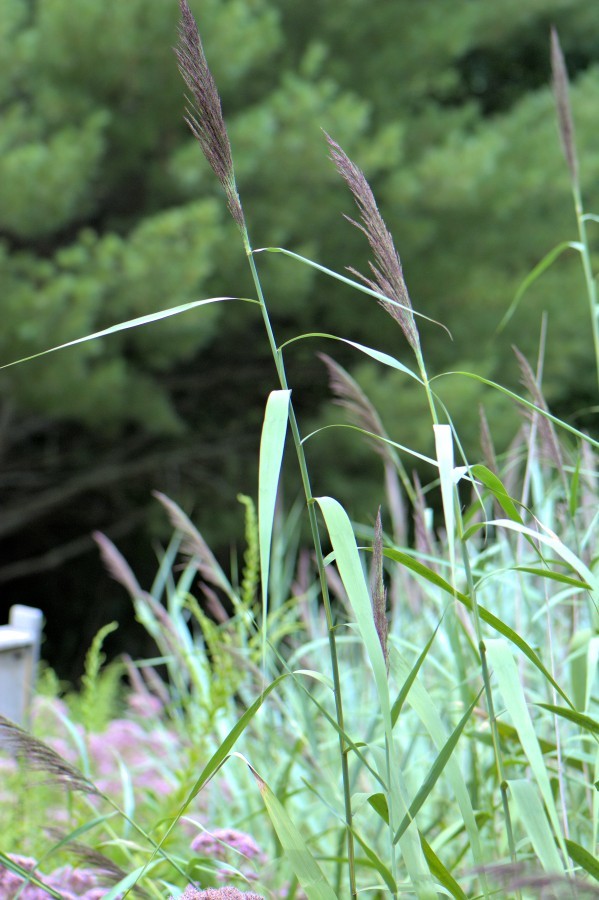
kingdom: Plantae
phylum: Tracheophyta
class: Liliopsida
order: Poales
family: Poaceae
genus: Phragmites
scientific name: Phragmites australis
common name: Common reed
